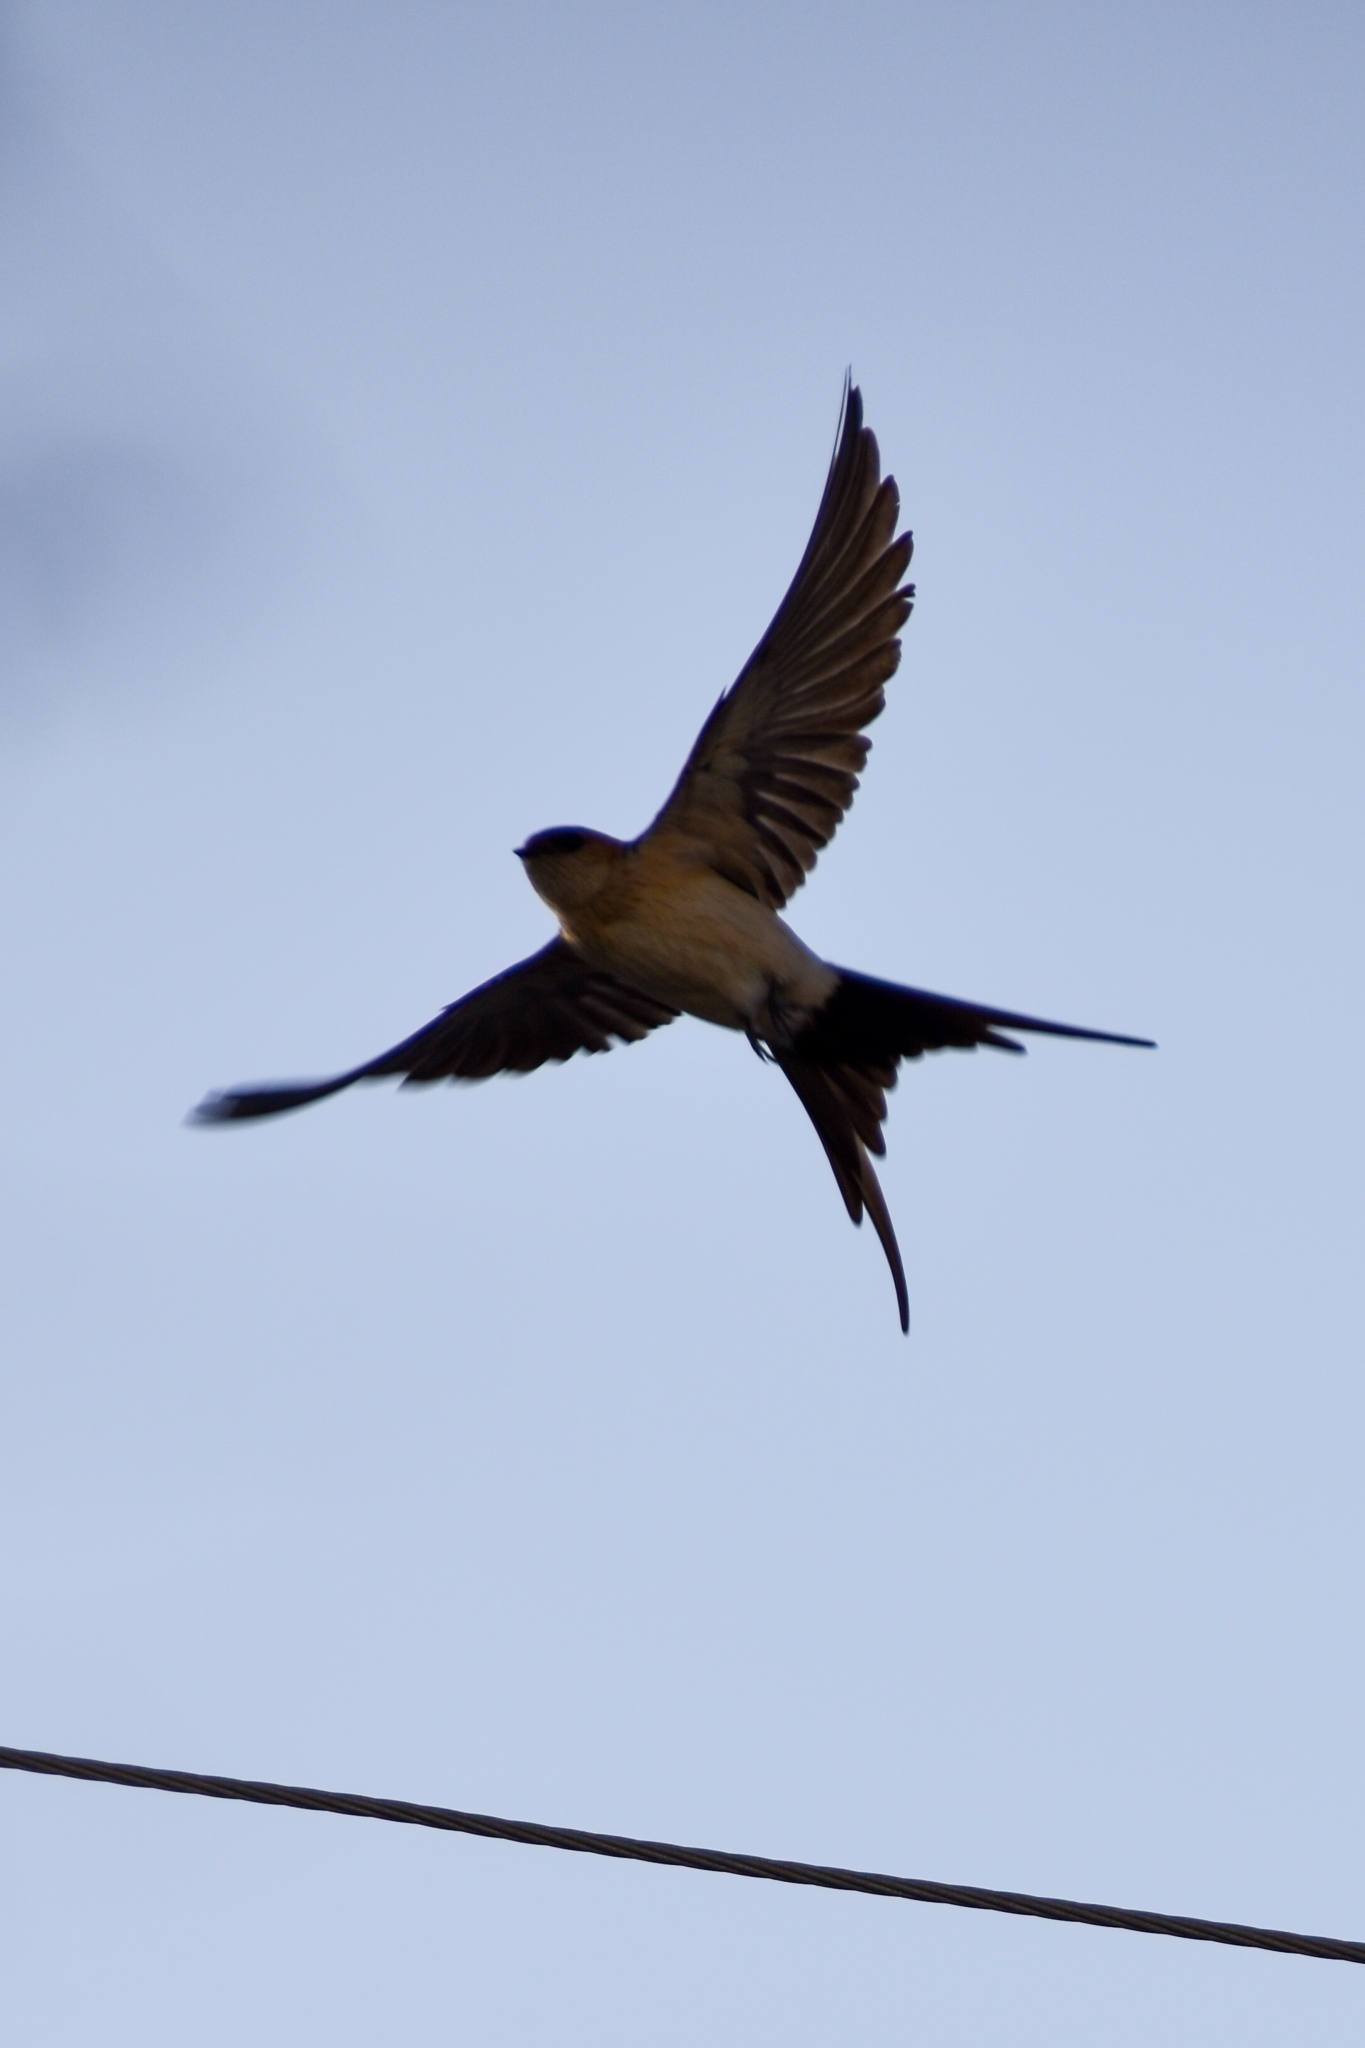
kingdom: Animalia
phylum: Chordata
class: Aves
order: Passeriformes
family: Hirundinidae
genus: Cecropis
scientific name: Cecropis daurica
